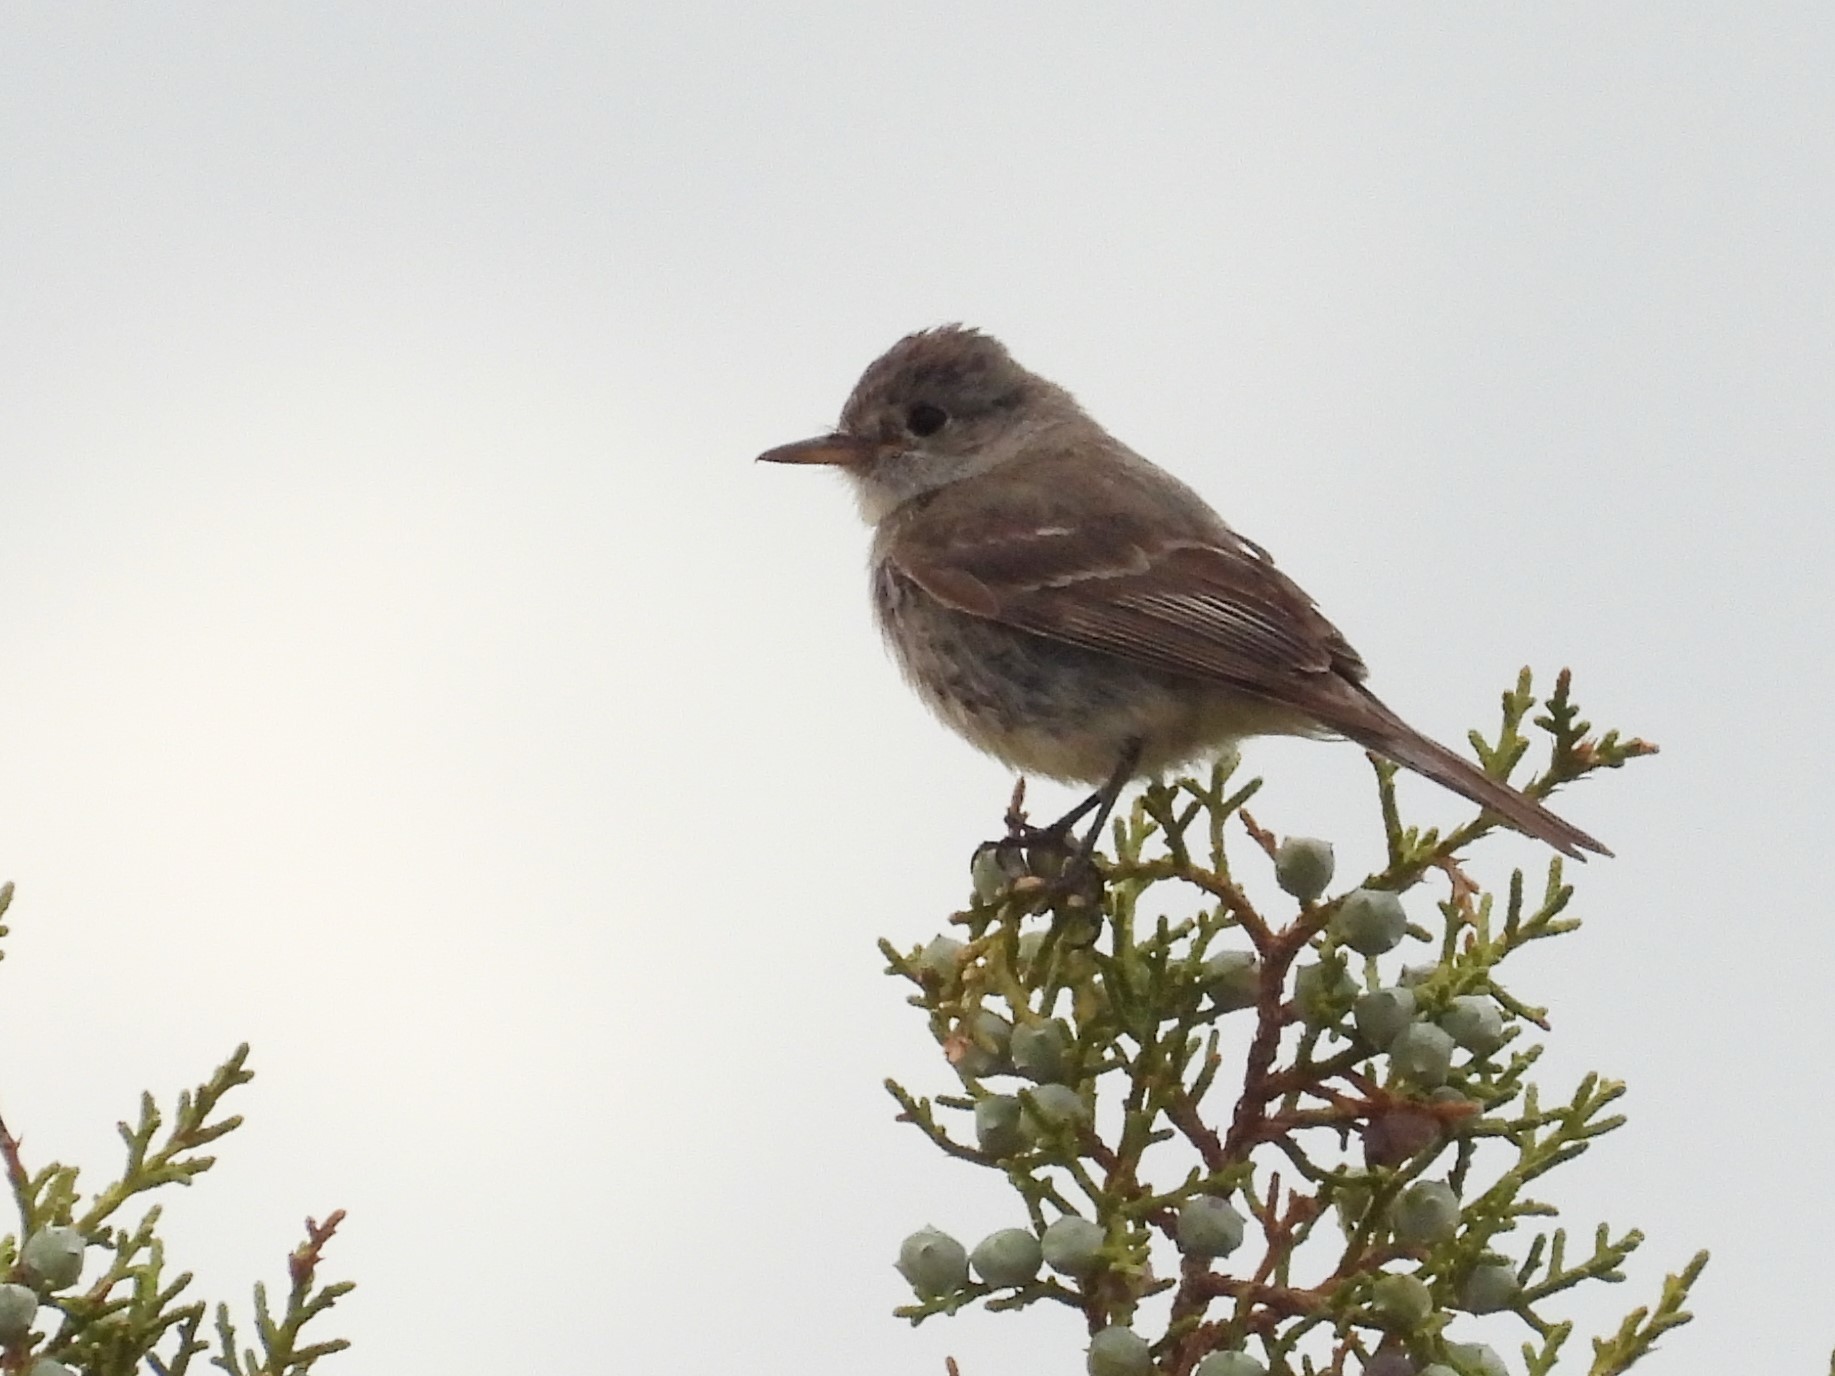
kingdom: Animalia
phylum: Chordata
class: Aves
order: Passeriformes
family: Tyrannidae
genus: Empidonax
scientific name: Empidonax wrightii
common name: Gray flycatcher
